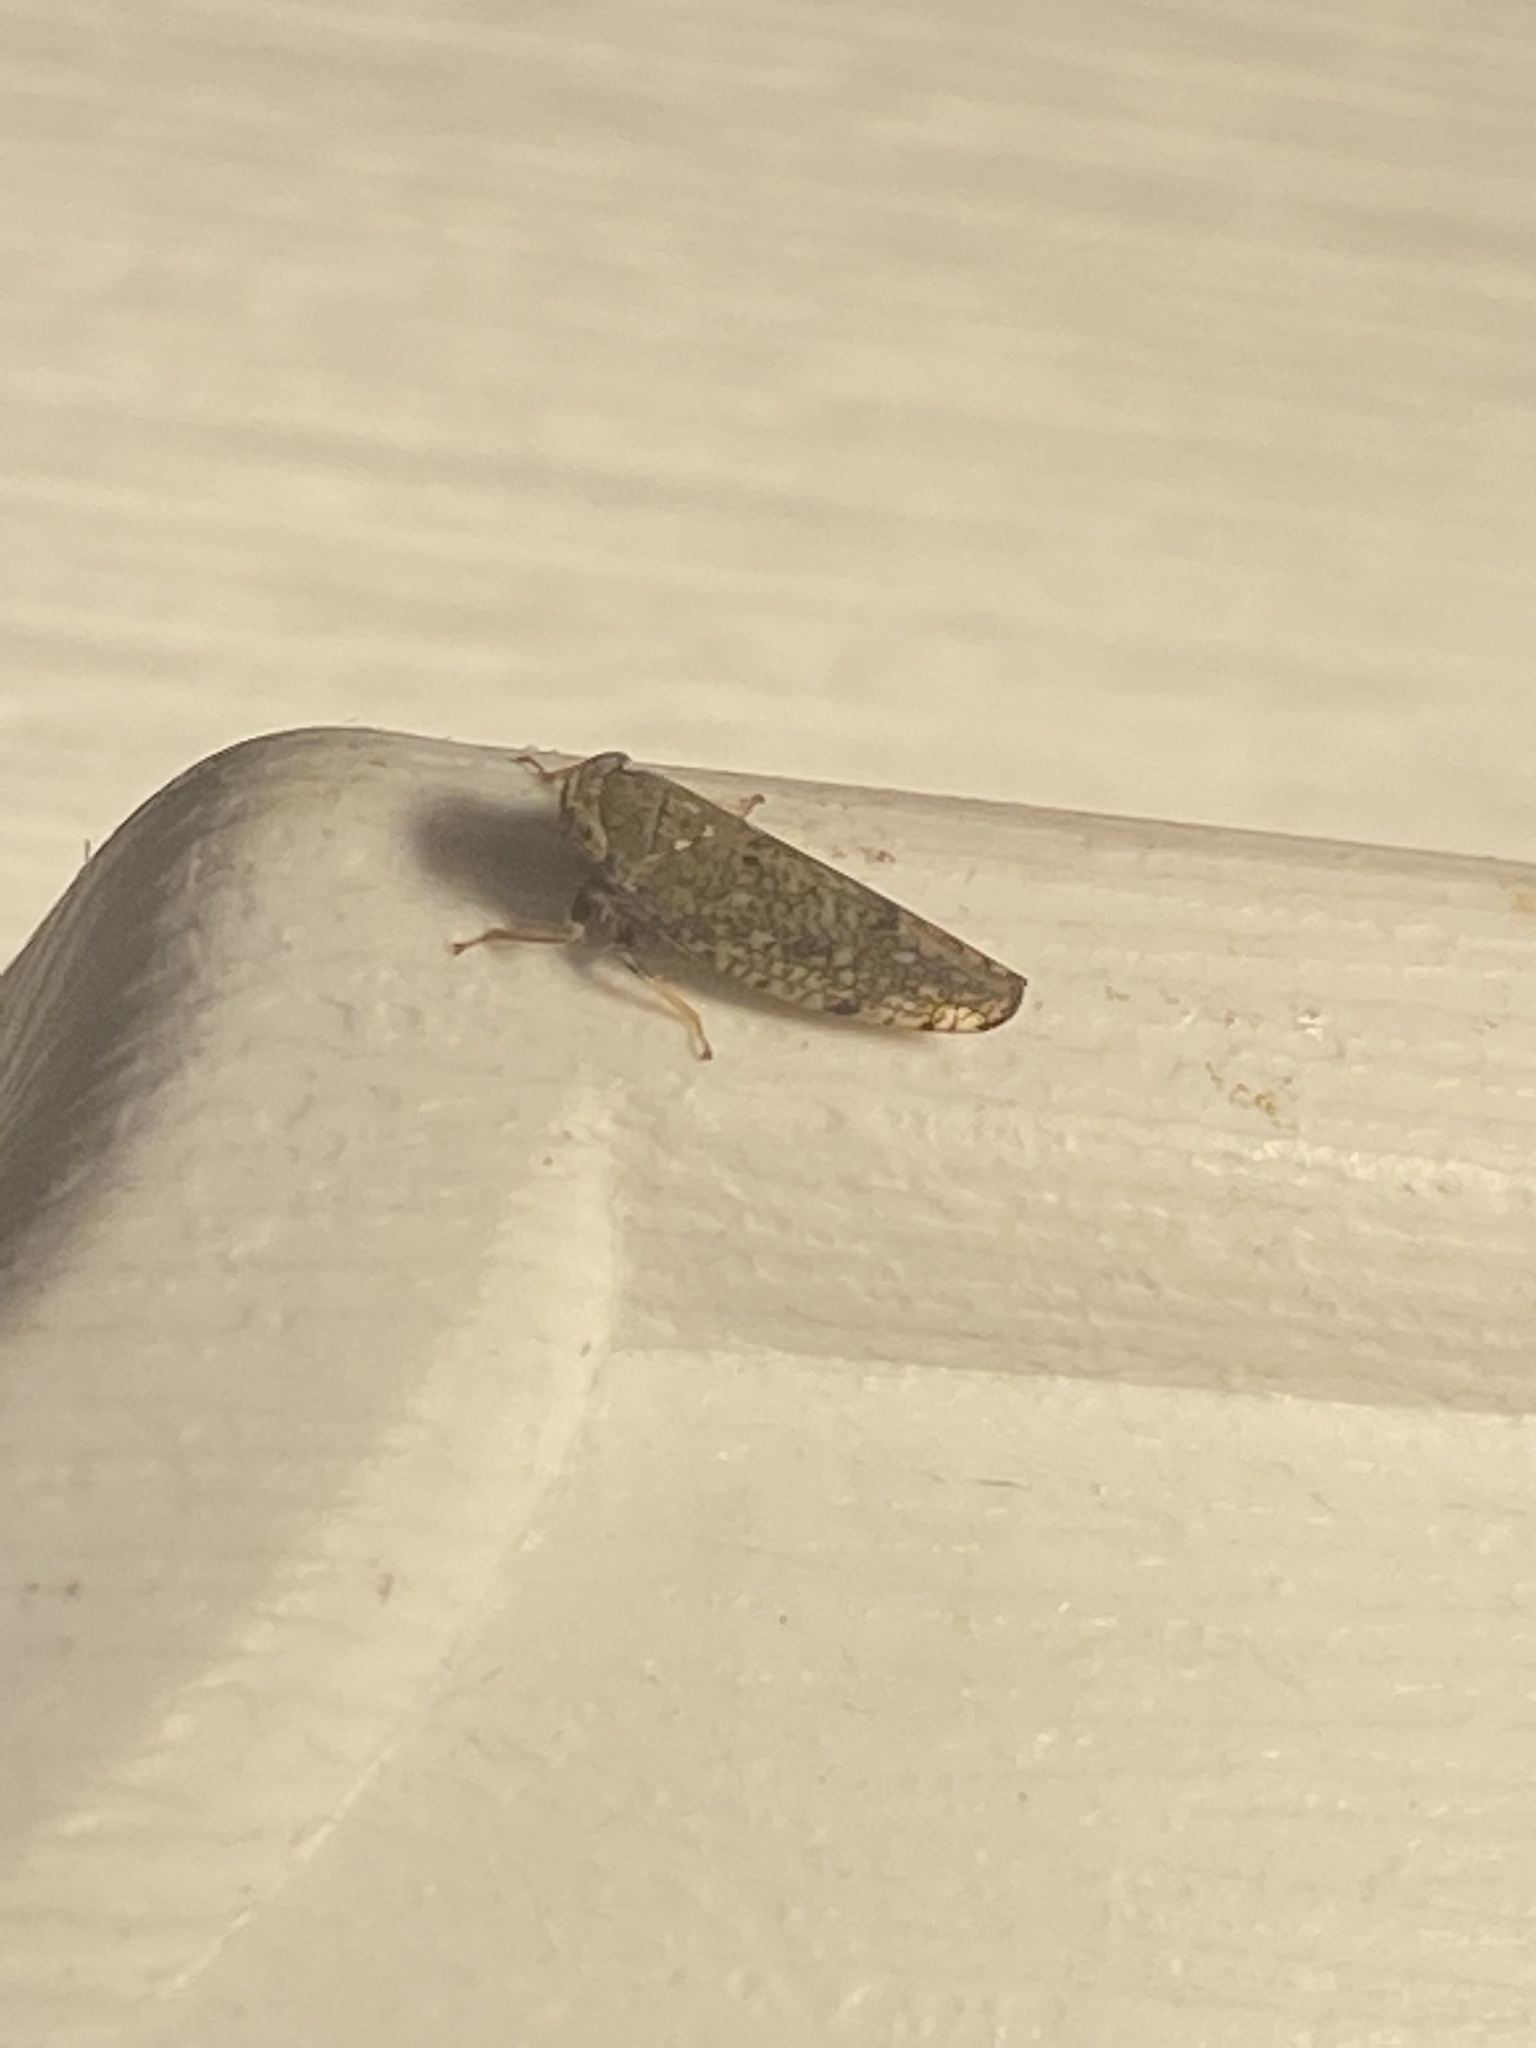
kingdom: Animalia
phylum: Arthropoda
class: Insecta
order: Hemiptera
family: Cicadellidae
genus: Orientus
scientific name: Orientus ishidae
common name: Japanese leafhopper
